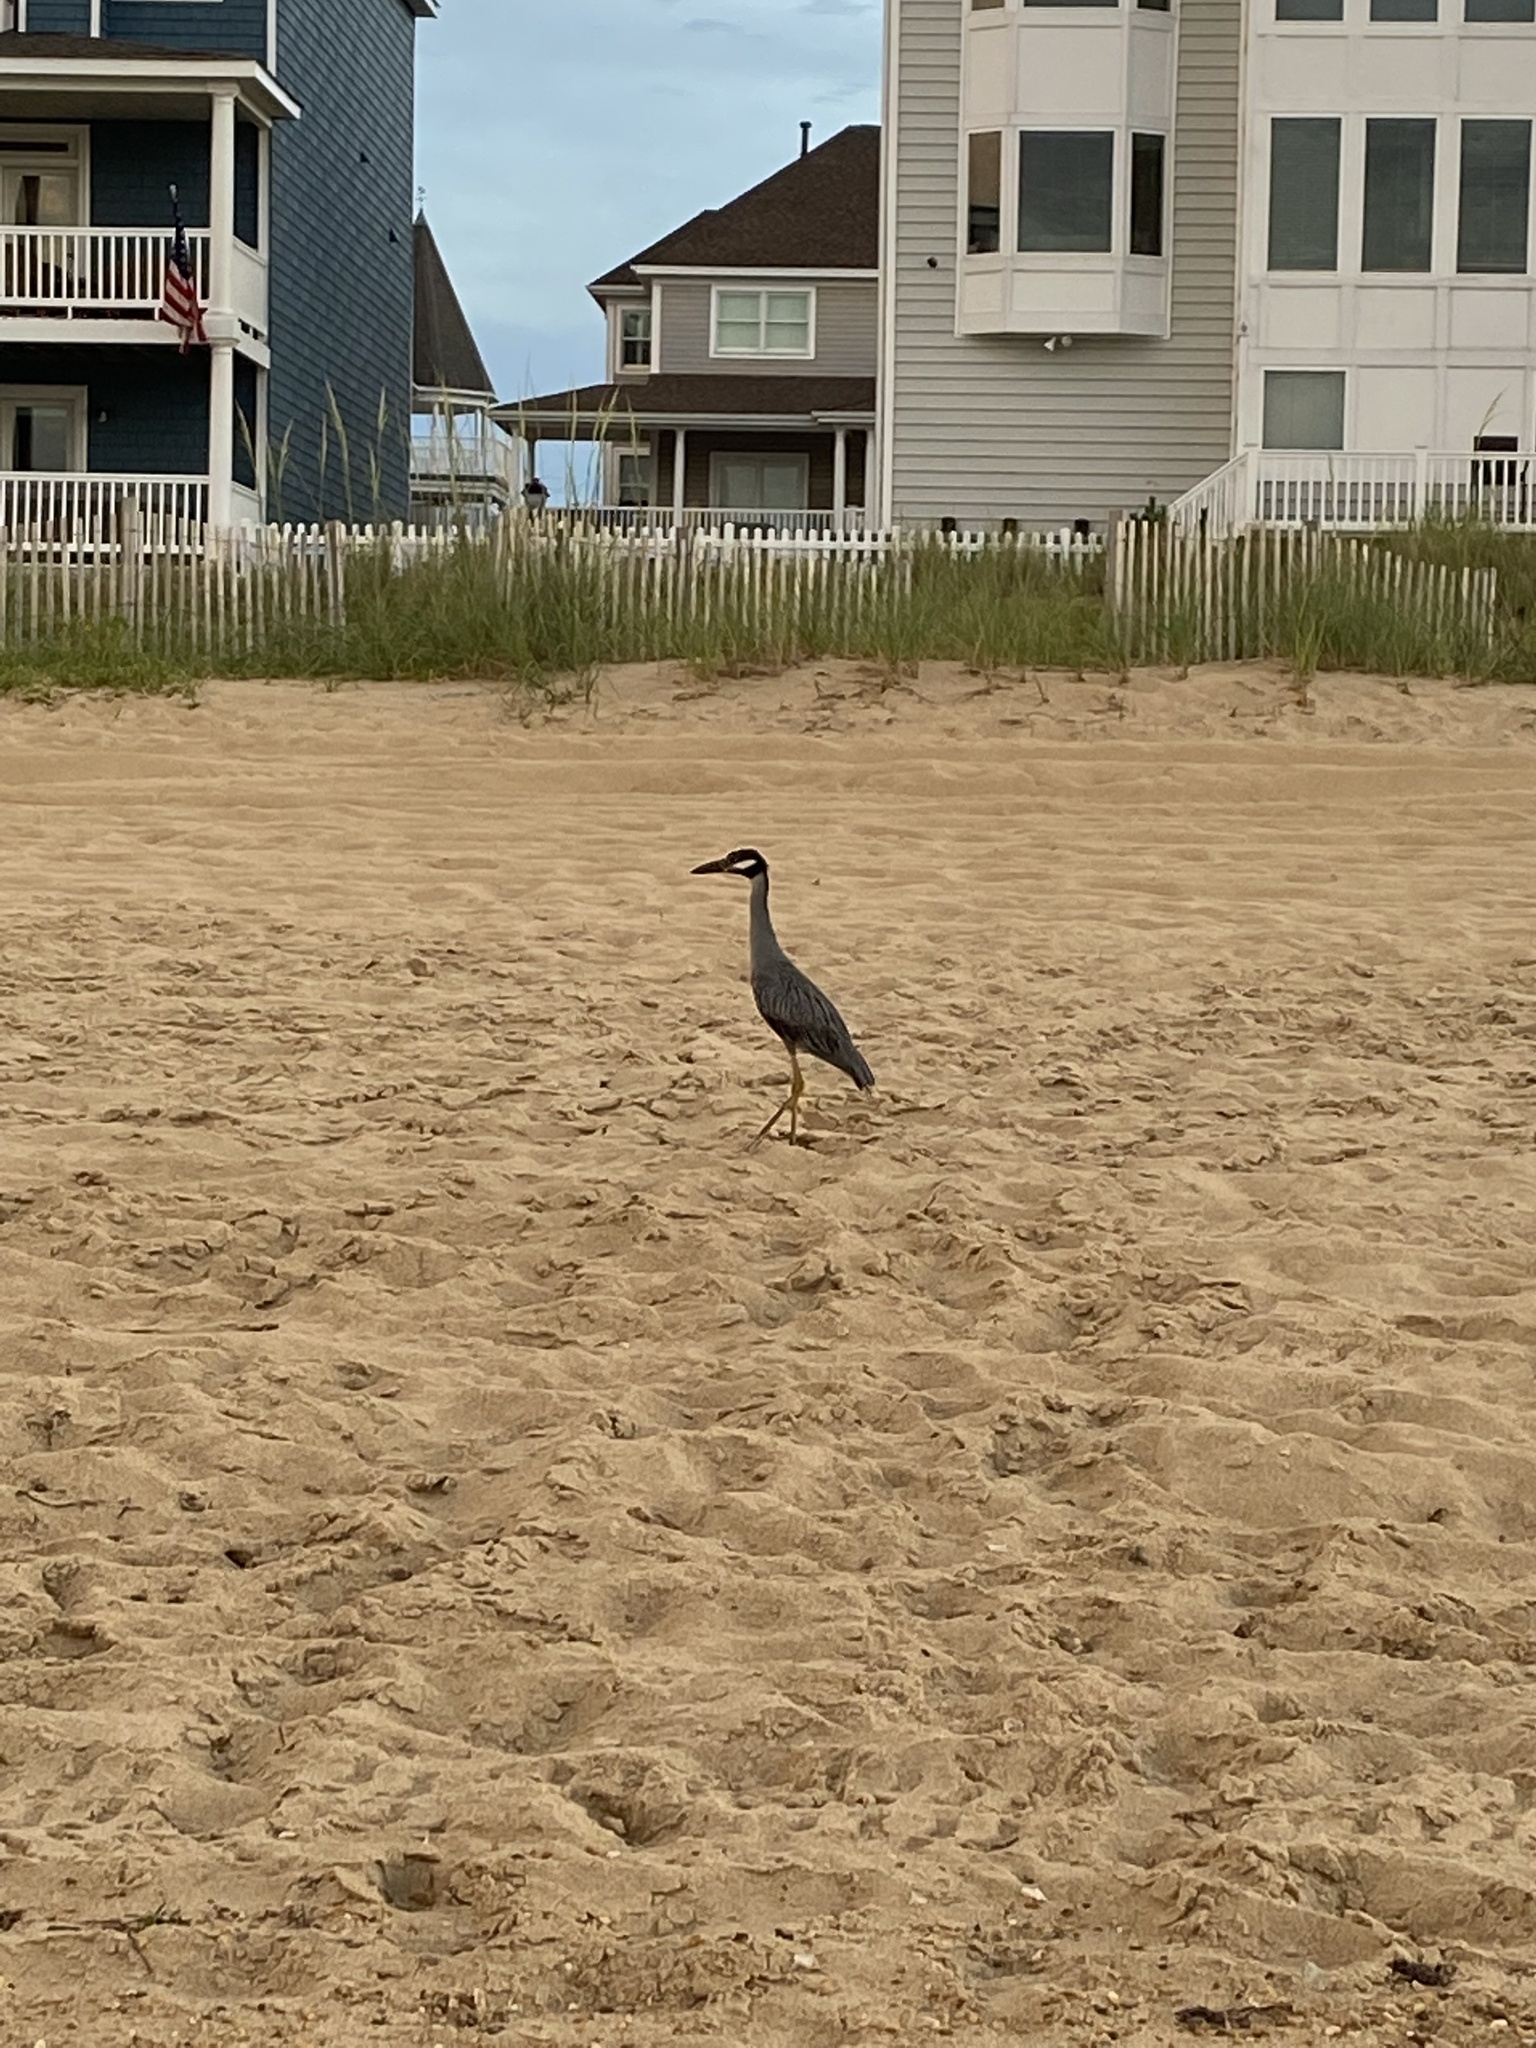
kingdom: Animalia
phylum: Chordata
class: Aves
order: Pelecaniformes
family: Ardeidae
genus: Nyctanassa
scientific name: Nyctanassa violacea
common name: Yellow-crowned night heron
